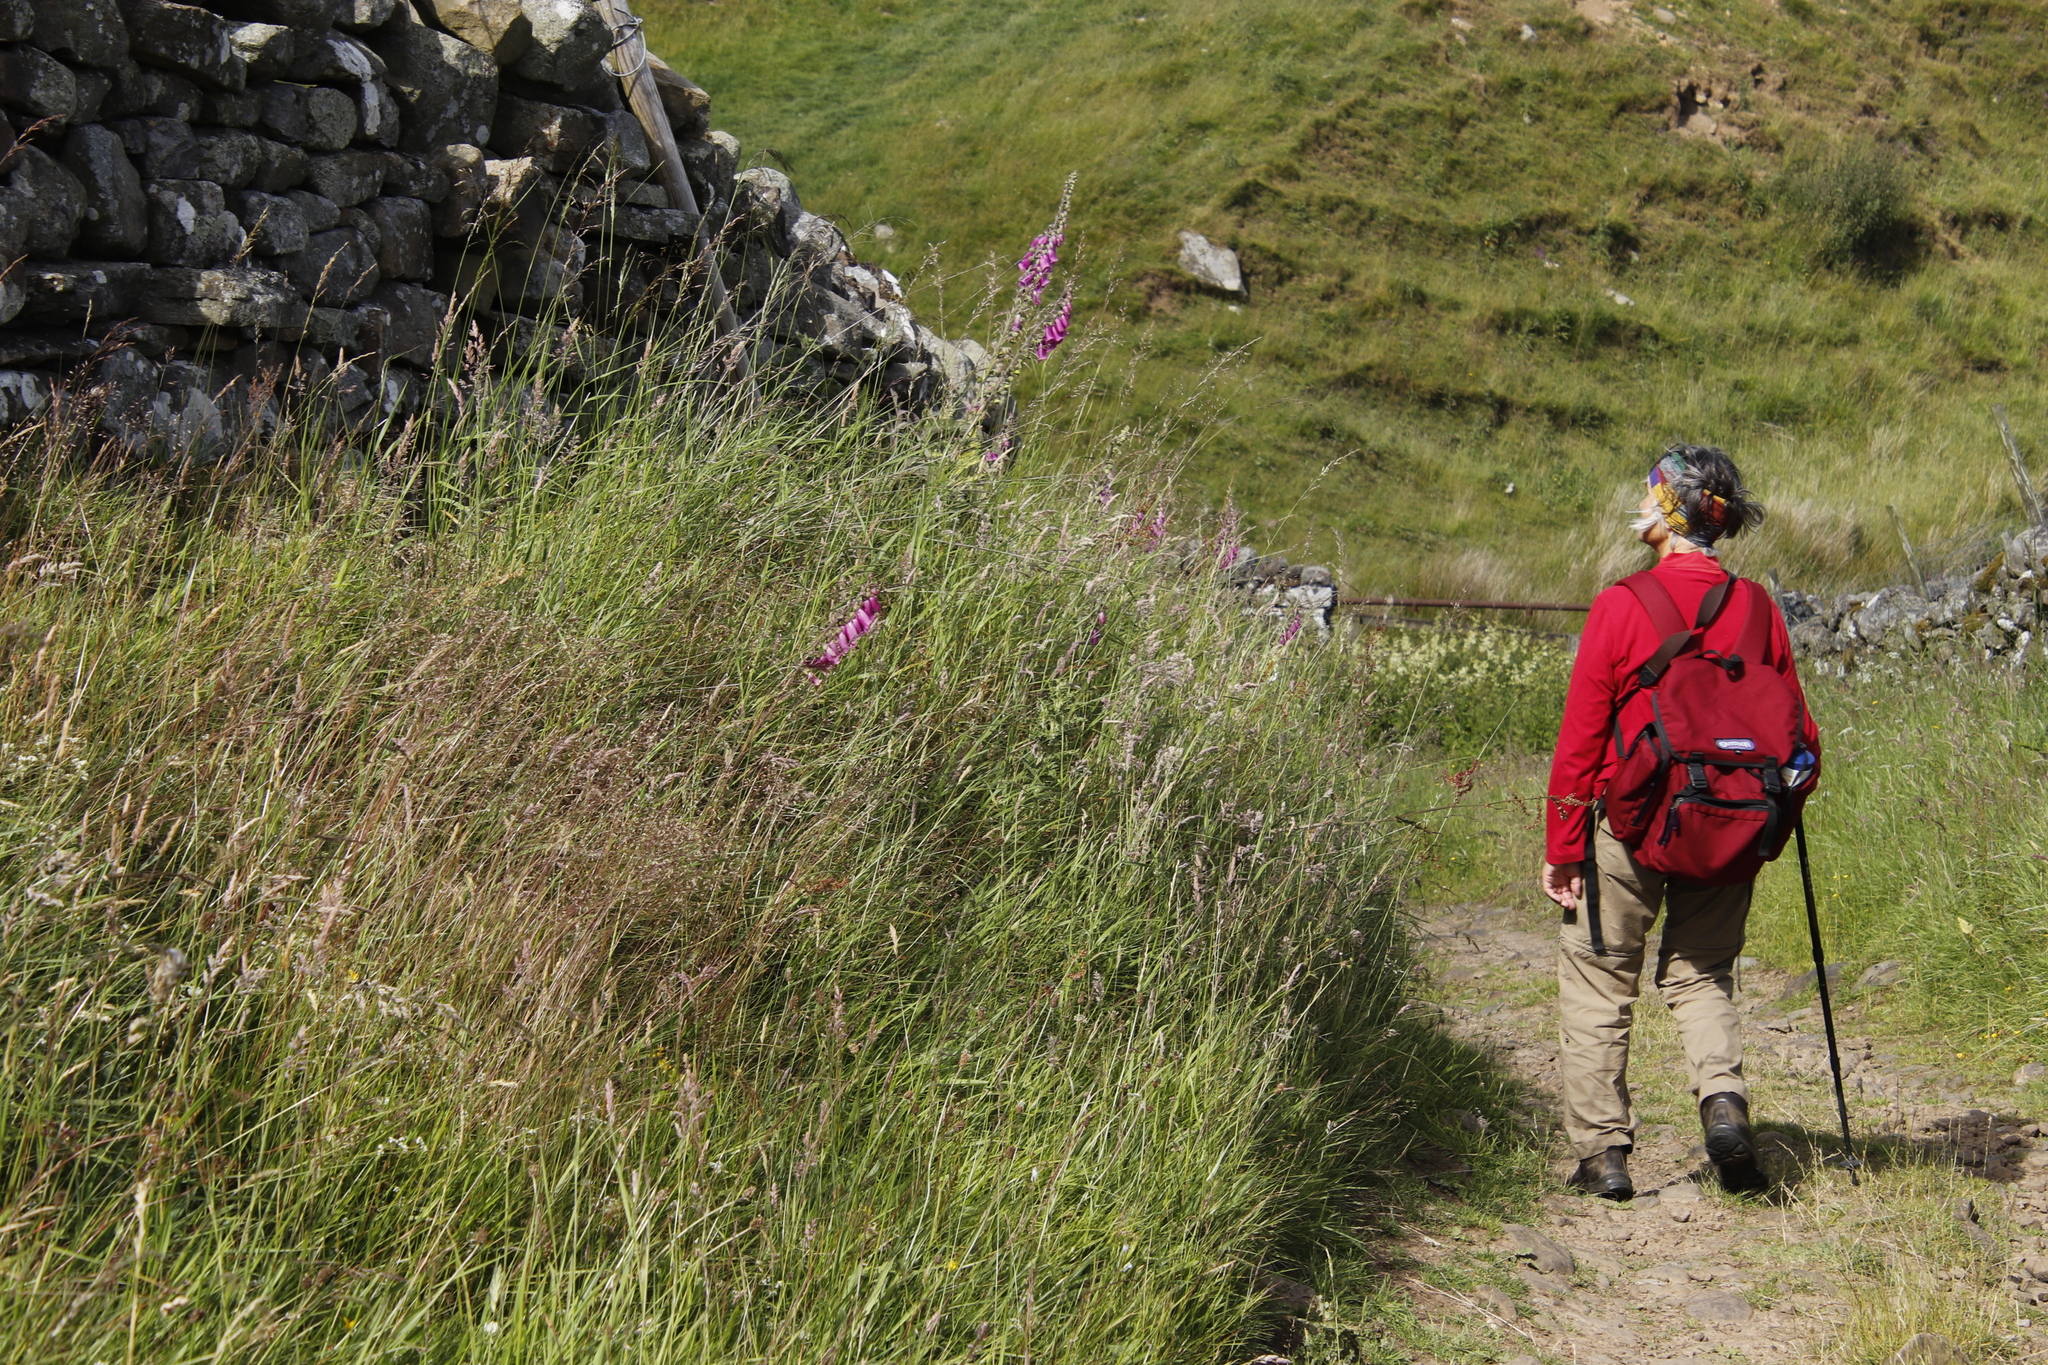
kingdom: Plantae
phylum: Tracheophyta
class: Magnoliopsida
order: Lamiales
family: Plantaginaceae
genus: Digitalis
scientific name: Digitalis purpurea
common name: Foxglove
